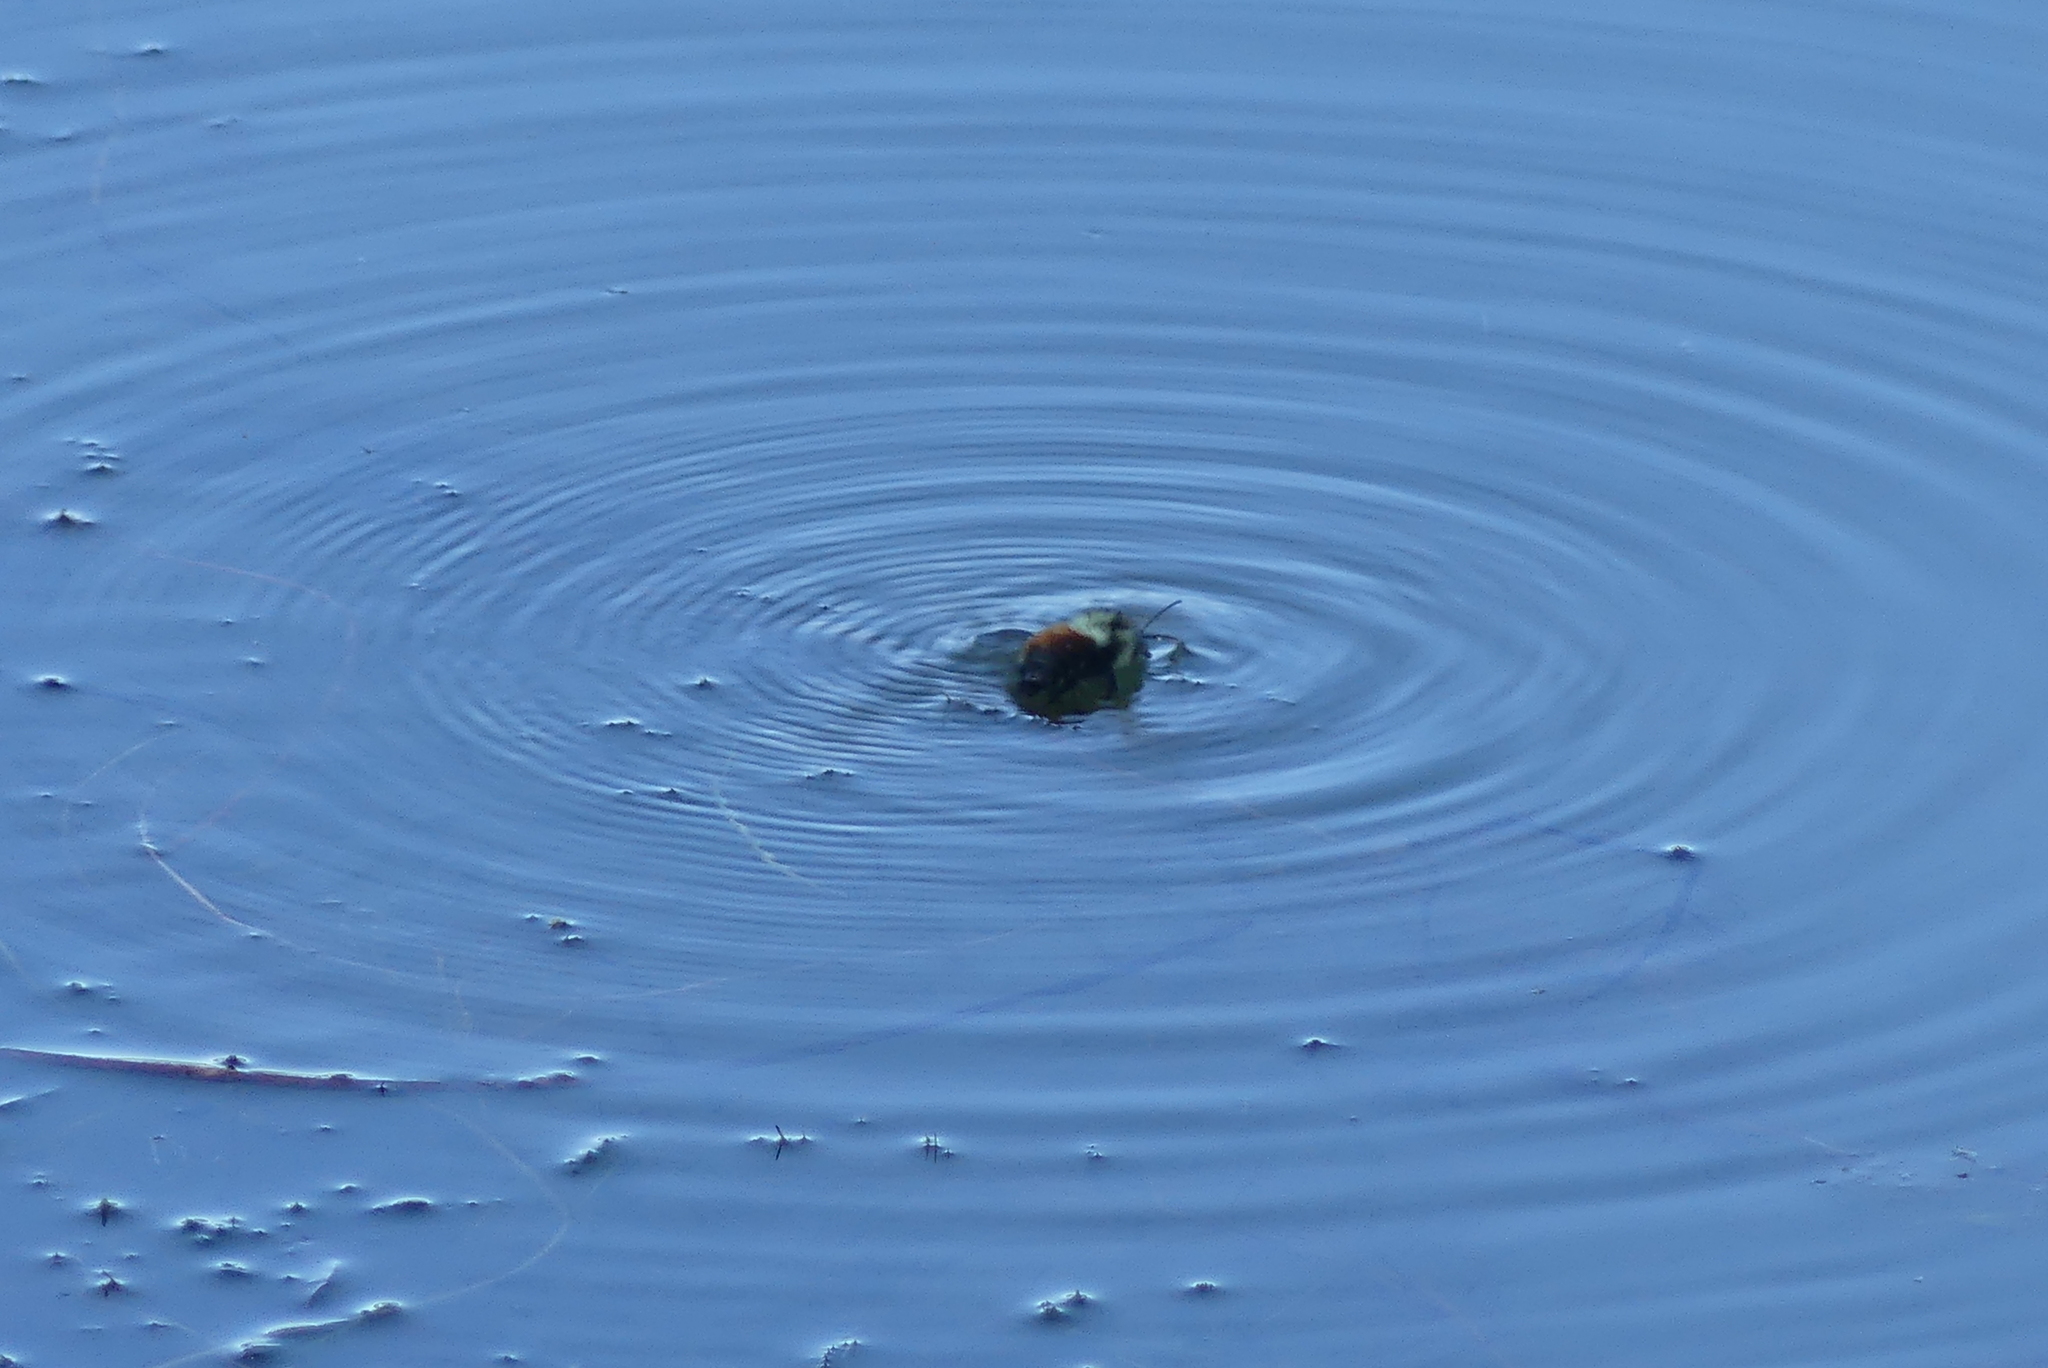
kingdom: Animalia
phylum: Arthropoda
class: Insecta
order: Hymenoptera
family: Apidae
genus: Bombus
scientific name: Bombus melanopygus
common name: Black tail bumble bee
